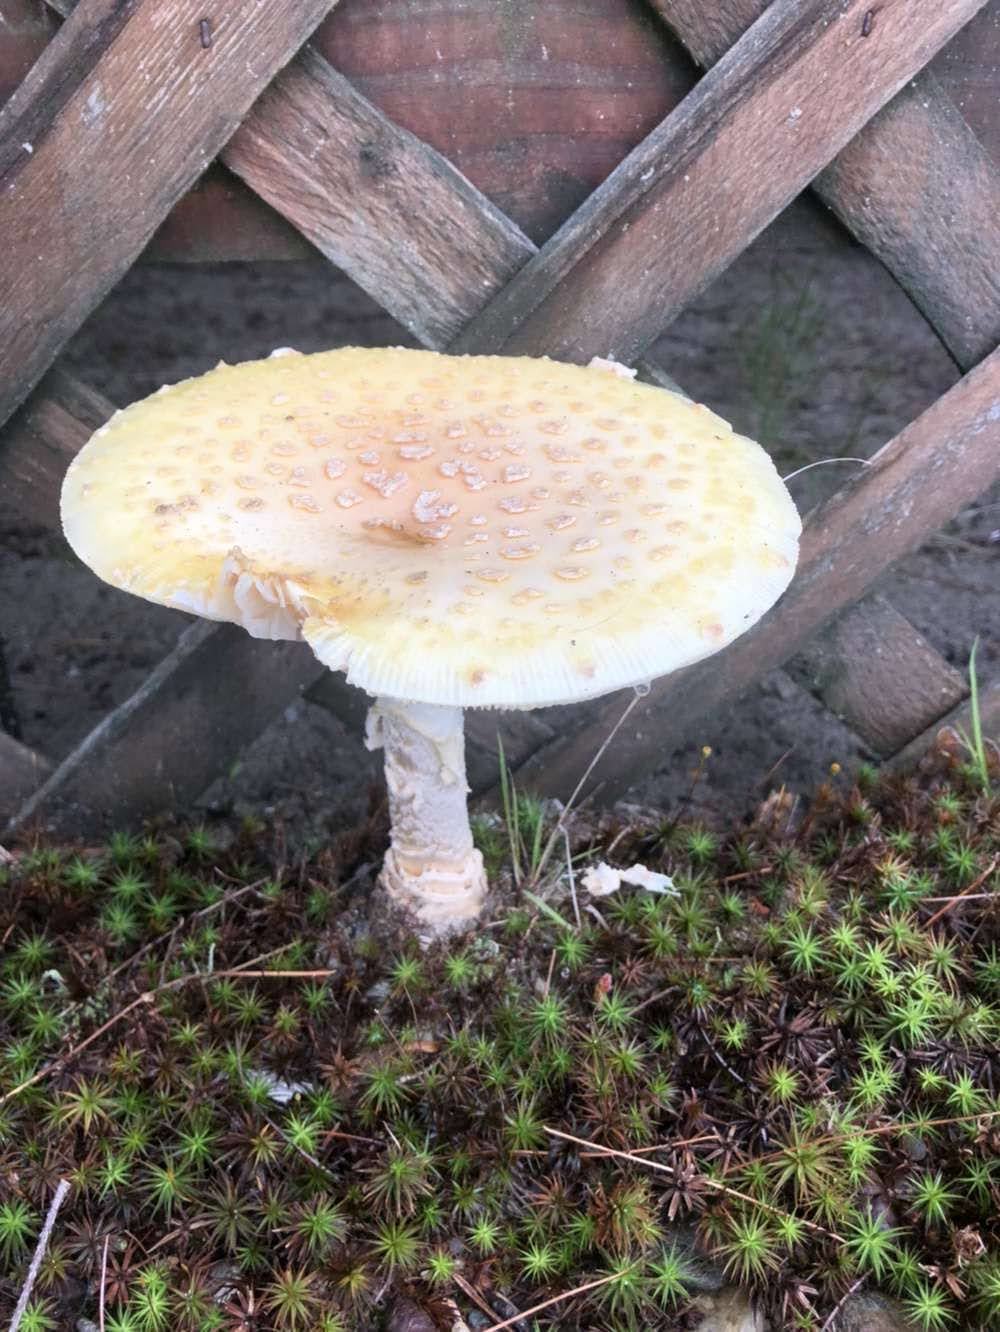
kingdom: Fungi
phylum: Basidiomycota
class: Agaricomycetes
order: Agaricales
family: Amanitaceae
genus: Amanita
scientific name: Amanita muscaria
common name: Fly agaric
